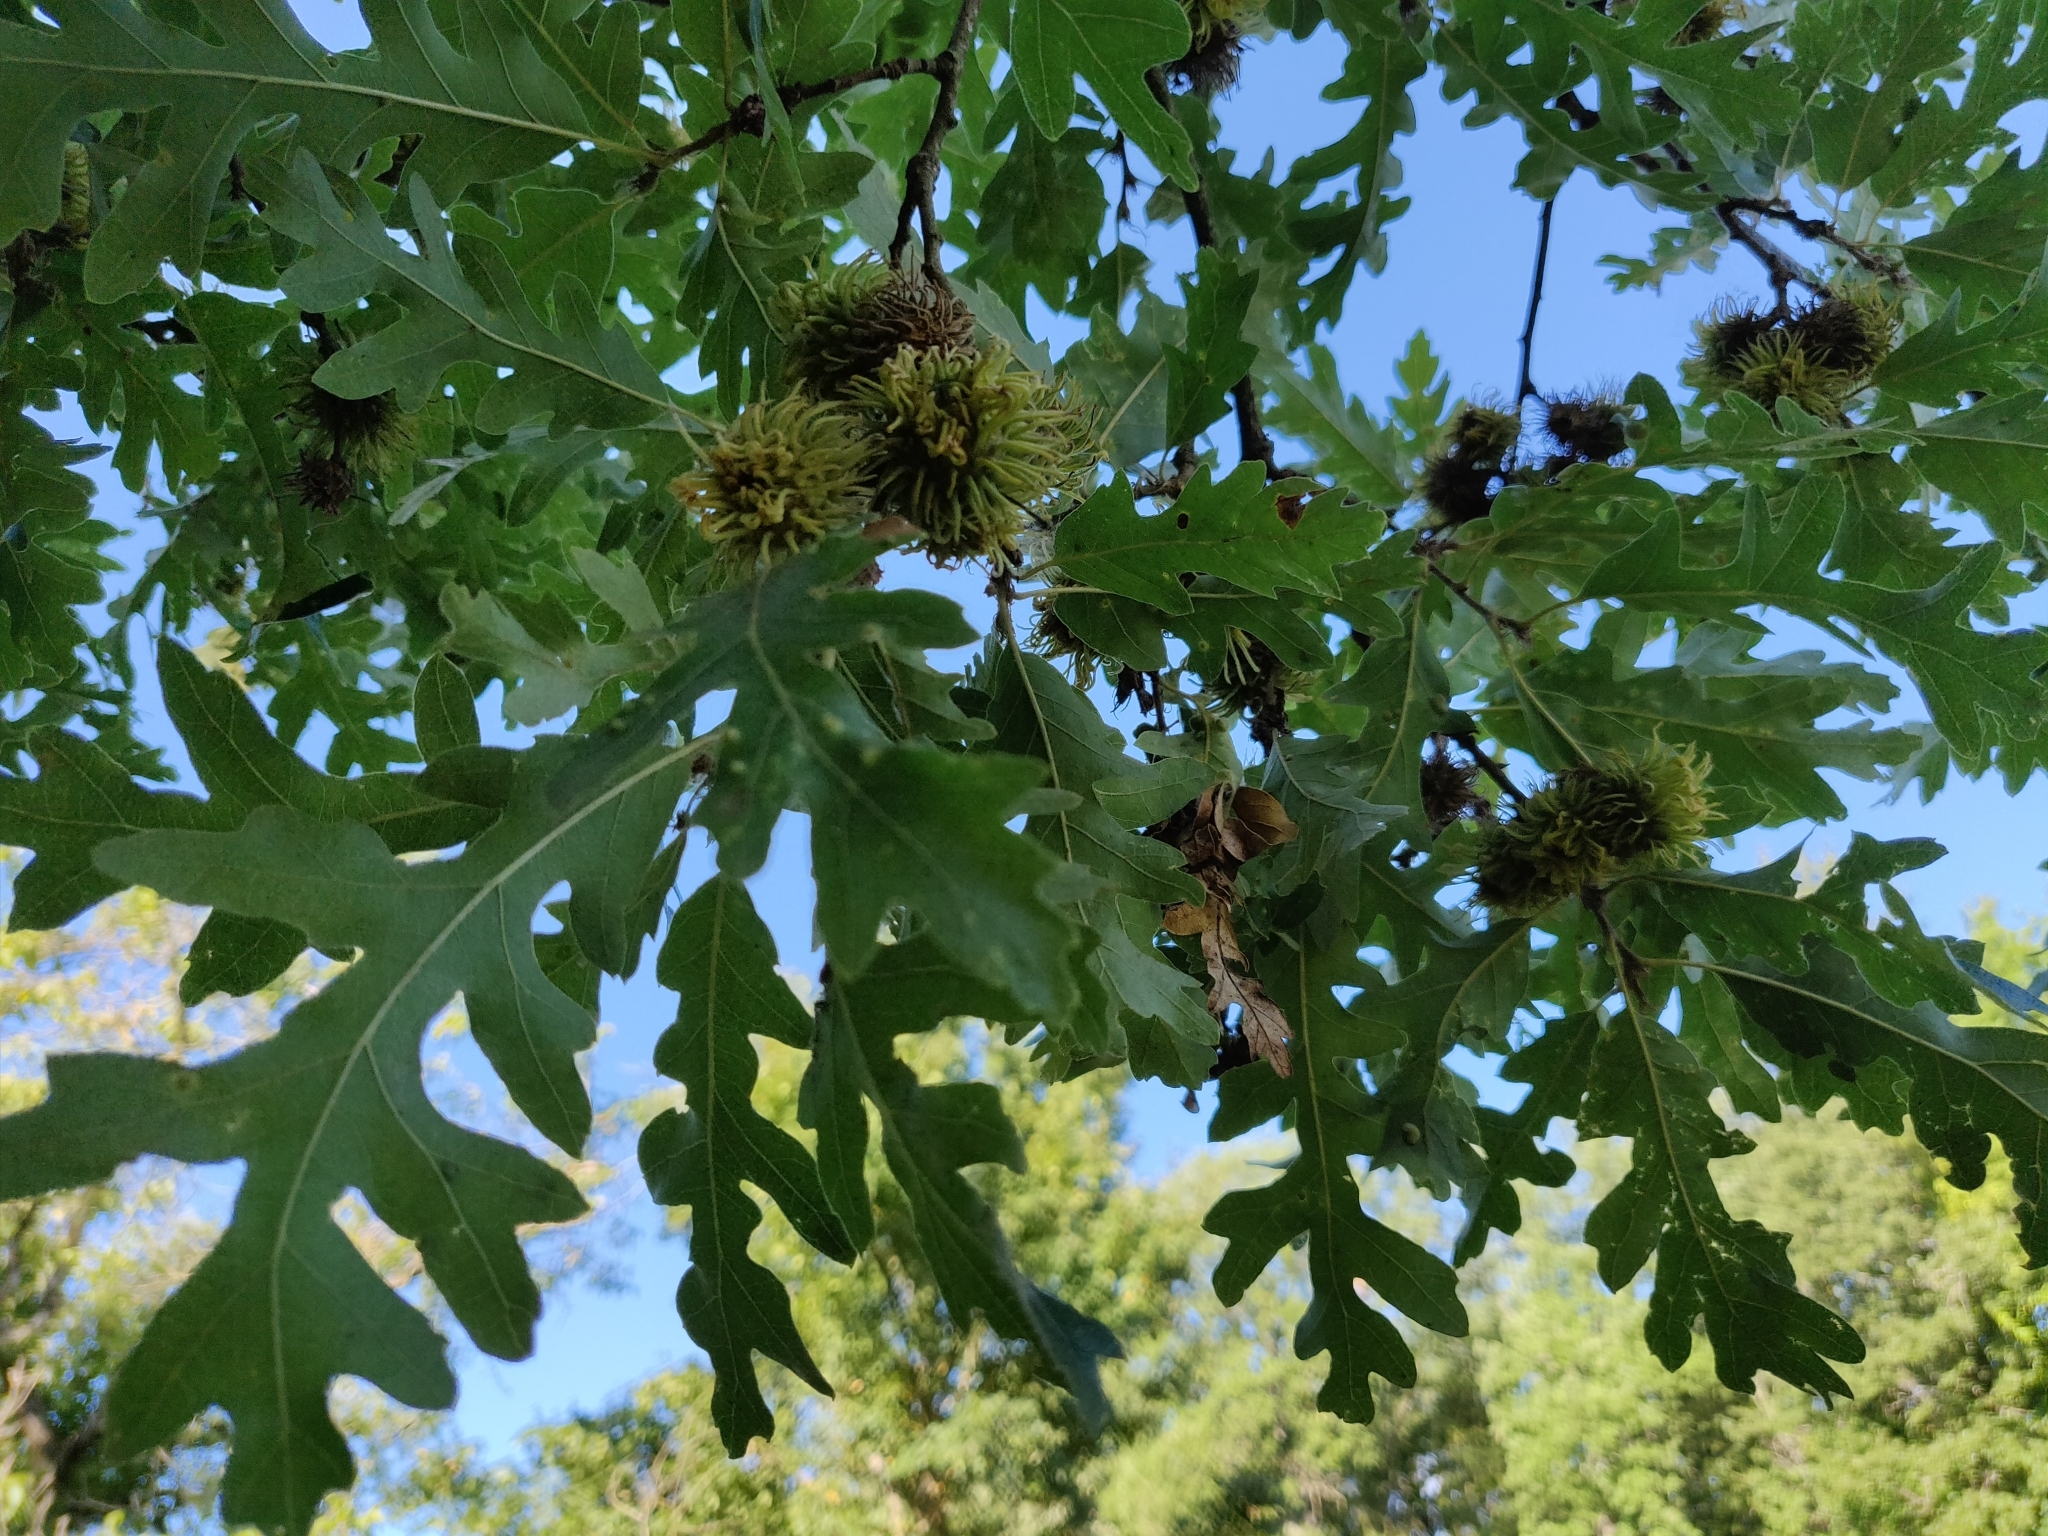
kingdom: Plantae
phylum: Tracheophyta
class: Magnoliopsida
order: Fagales
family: Fagaceae
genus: Quercus
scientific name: Quercus cerris
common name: Turkey oak
